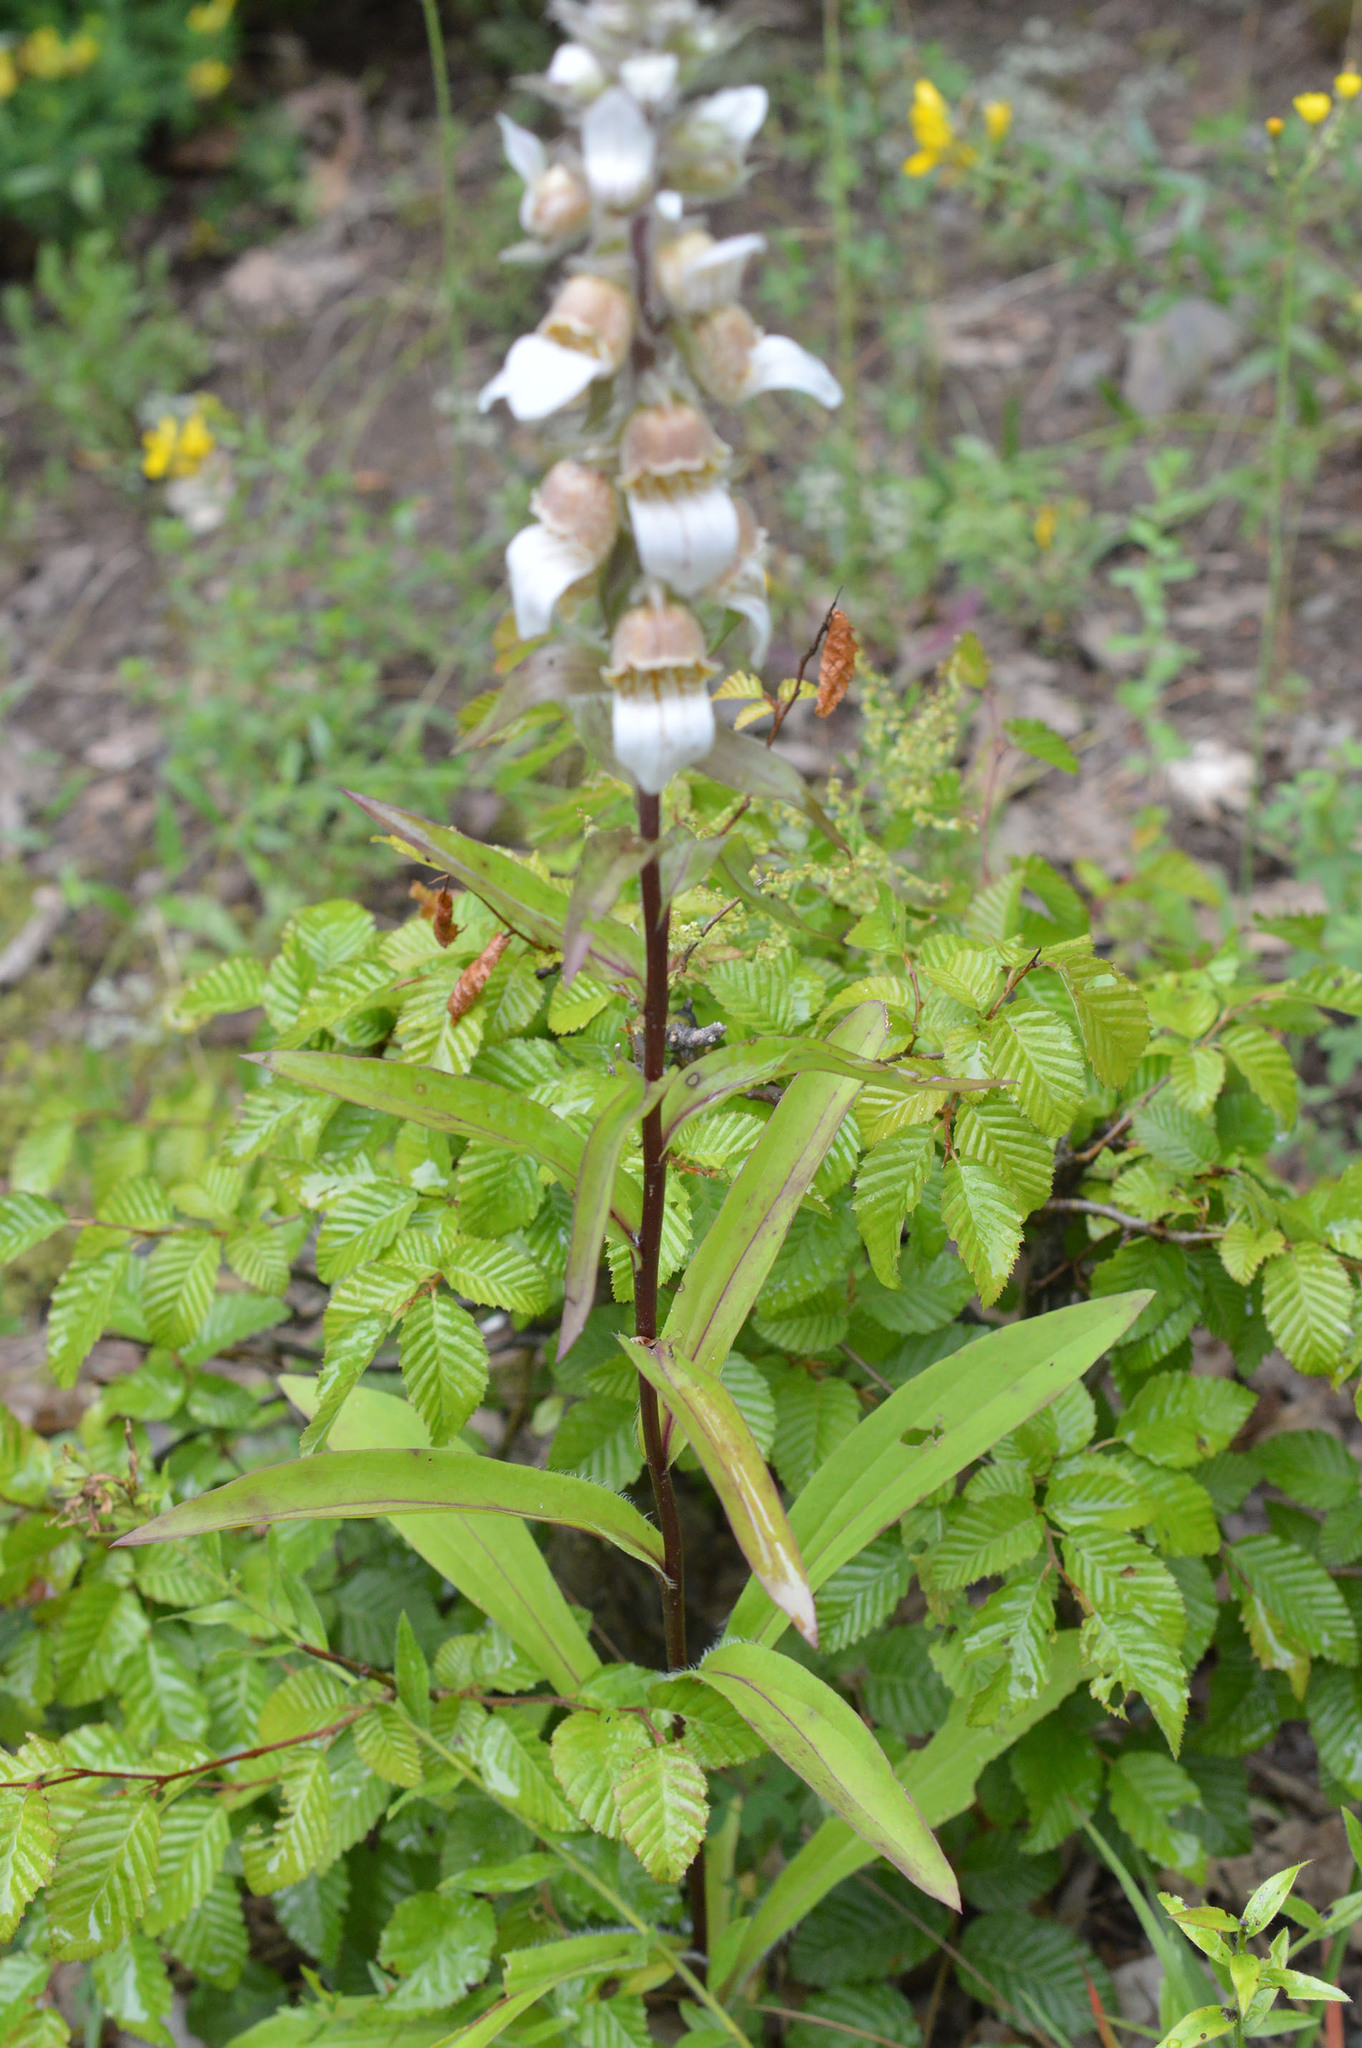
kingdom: Plantae
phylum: Tracheophyta
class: Magnoliopsida
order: Lamiales
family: Plantaginaceae
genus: Digitalis
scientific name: Digitalis lanata
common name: Grecian foxglove
